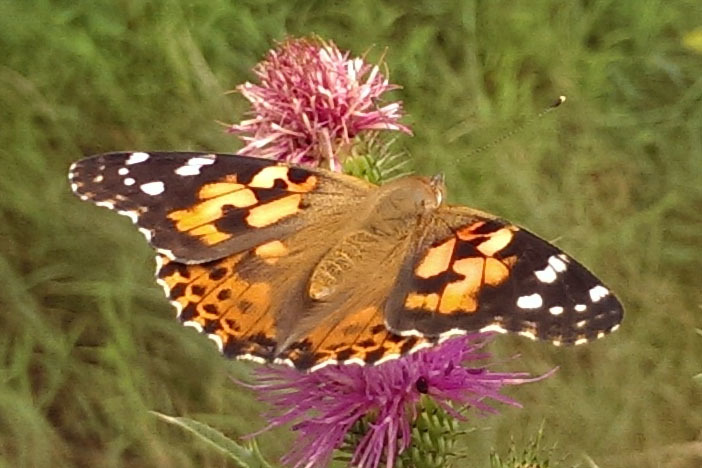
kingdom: Animalia
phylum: Arthropoda
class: Insecta
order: Lepidoptera
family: Nymphalidae
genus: Vanessa
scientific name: Vanessa cardui
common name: Painted lady
